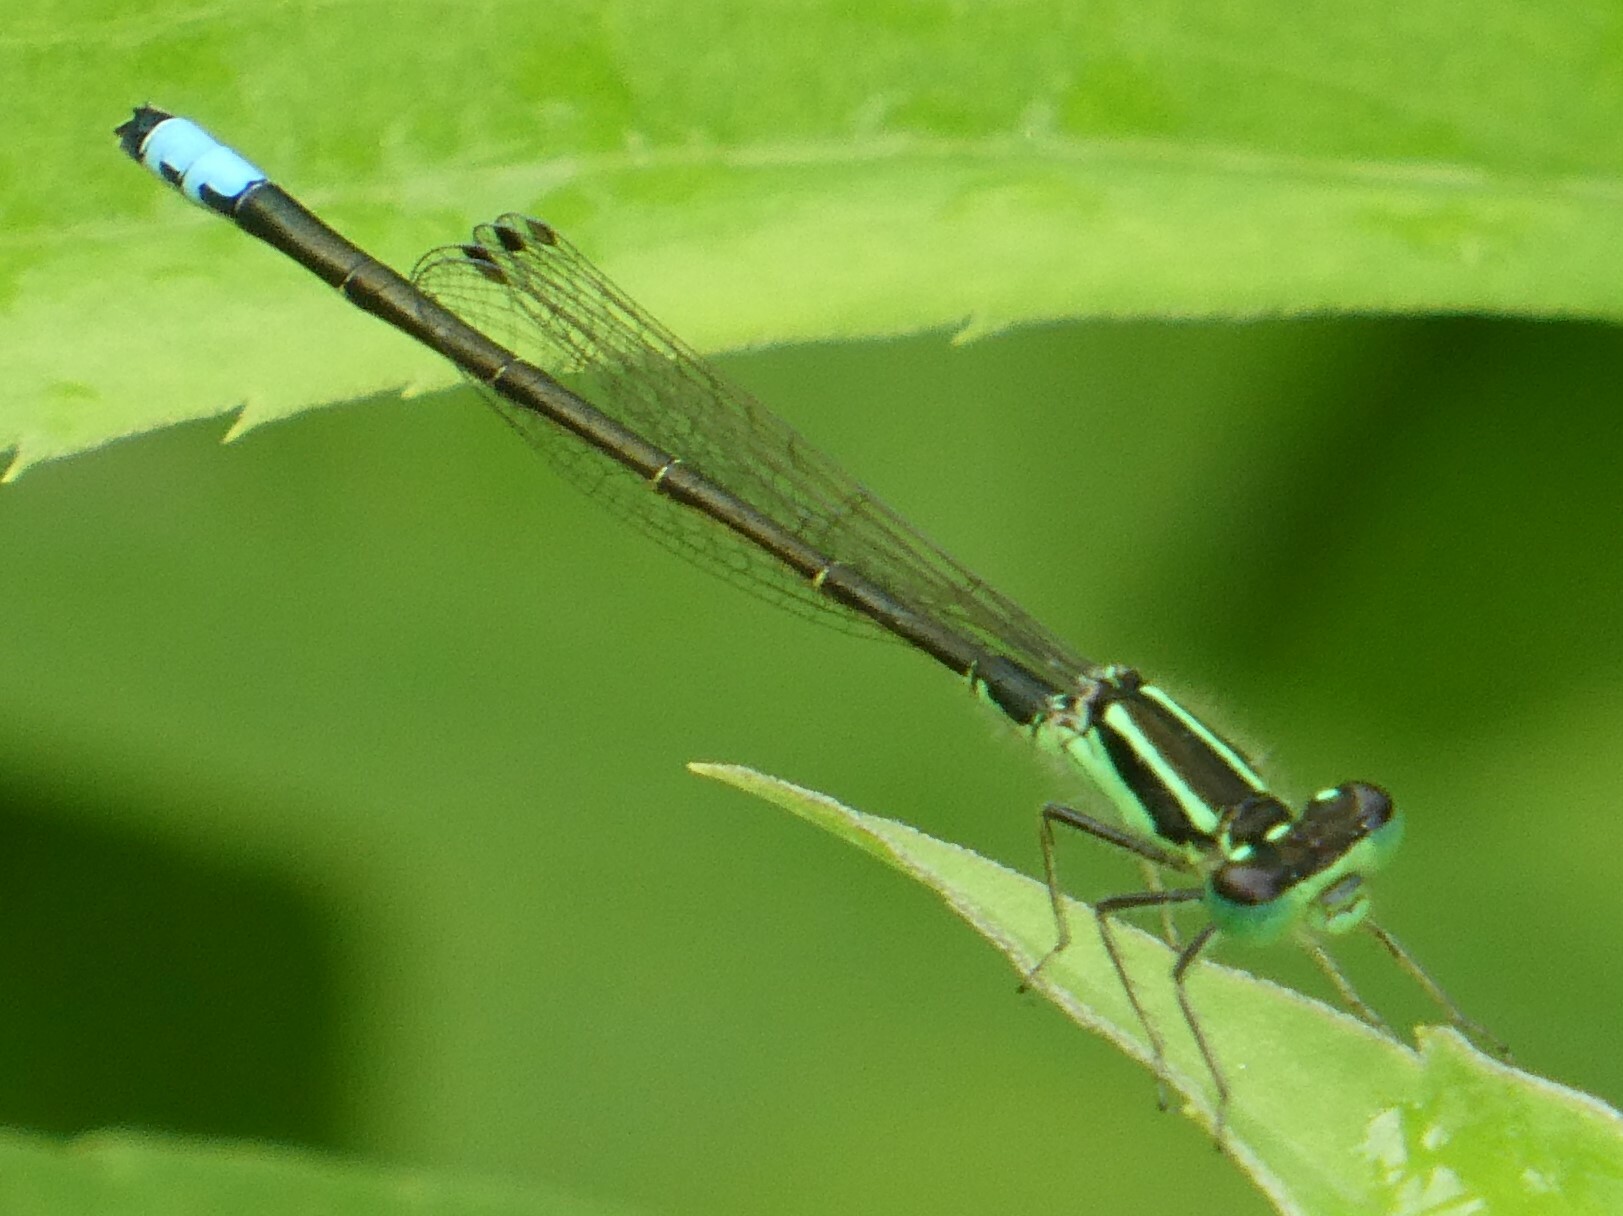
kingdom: Animalia
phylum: Arthropoda
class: Insecta
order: Odonata
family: Coenagrionidae
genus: Ischnura
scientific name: Ischnura verticalis
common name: Eastern forktail
